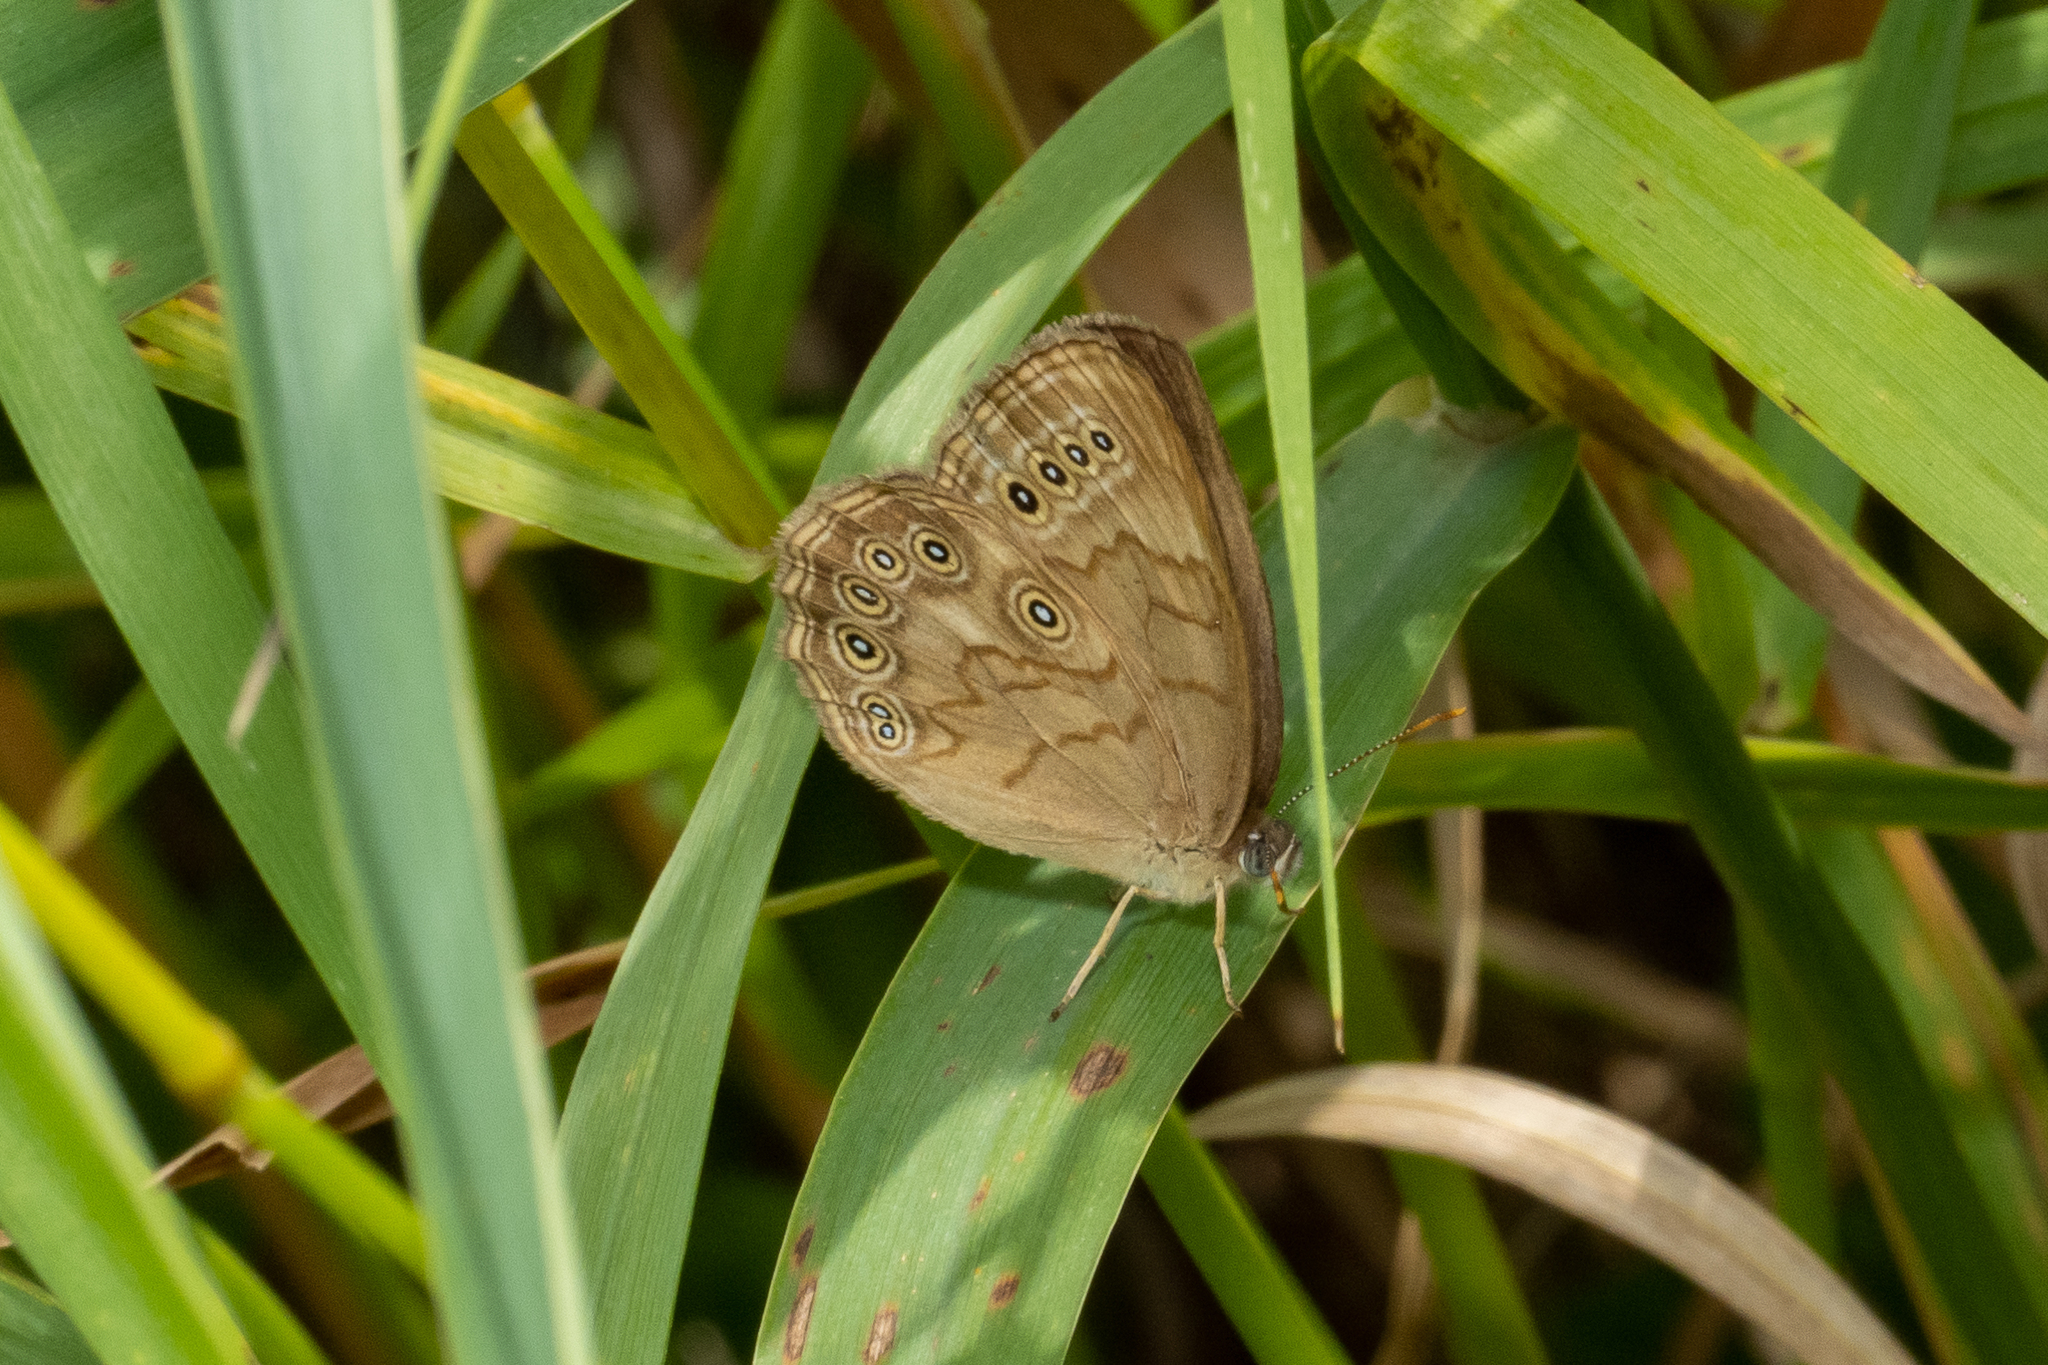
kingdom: Animalia
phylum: Arthropoda
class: Insecta
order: Lepidoptera
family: Nymphalidae
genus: Lethe
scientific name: Lethe eurydice
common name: Eyed brown
